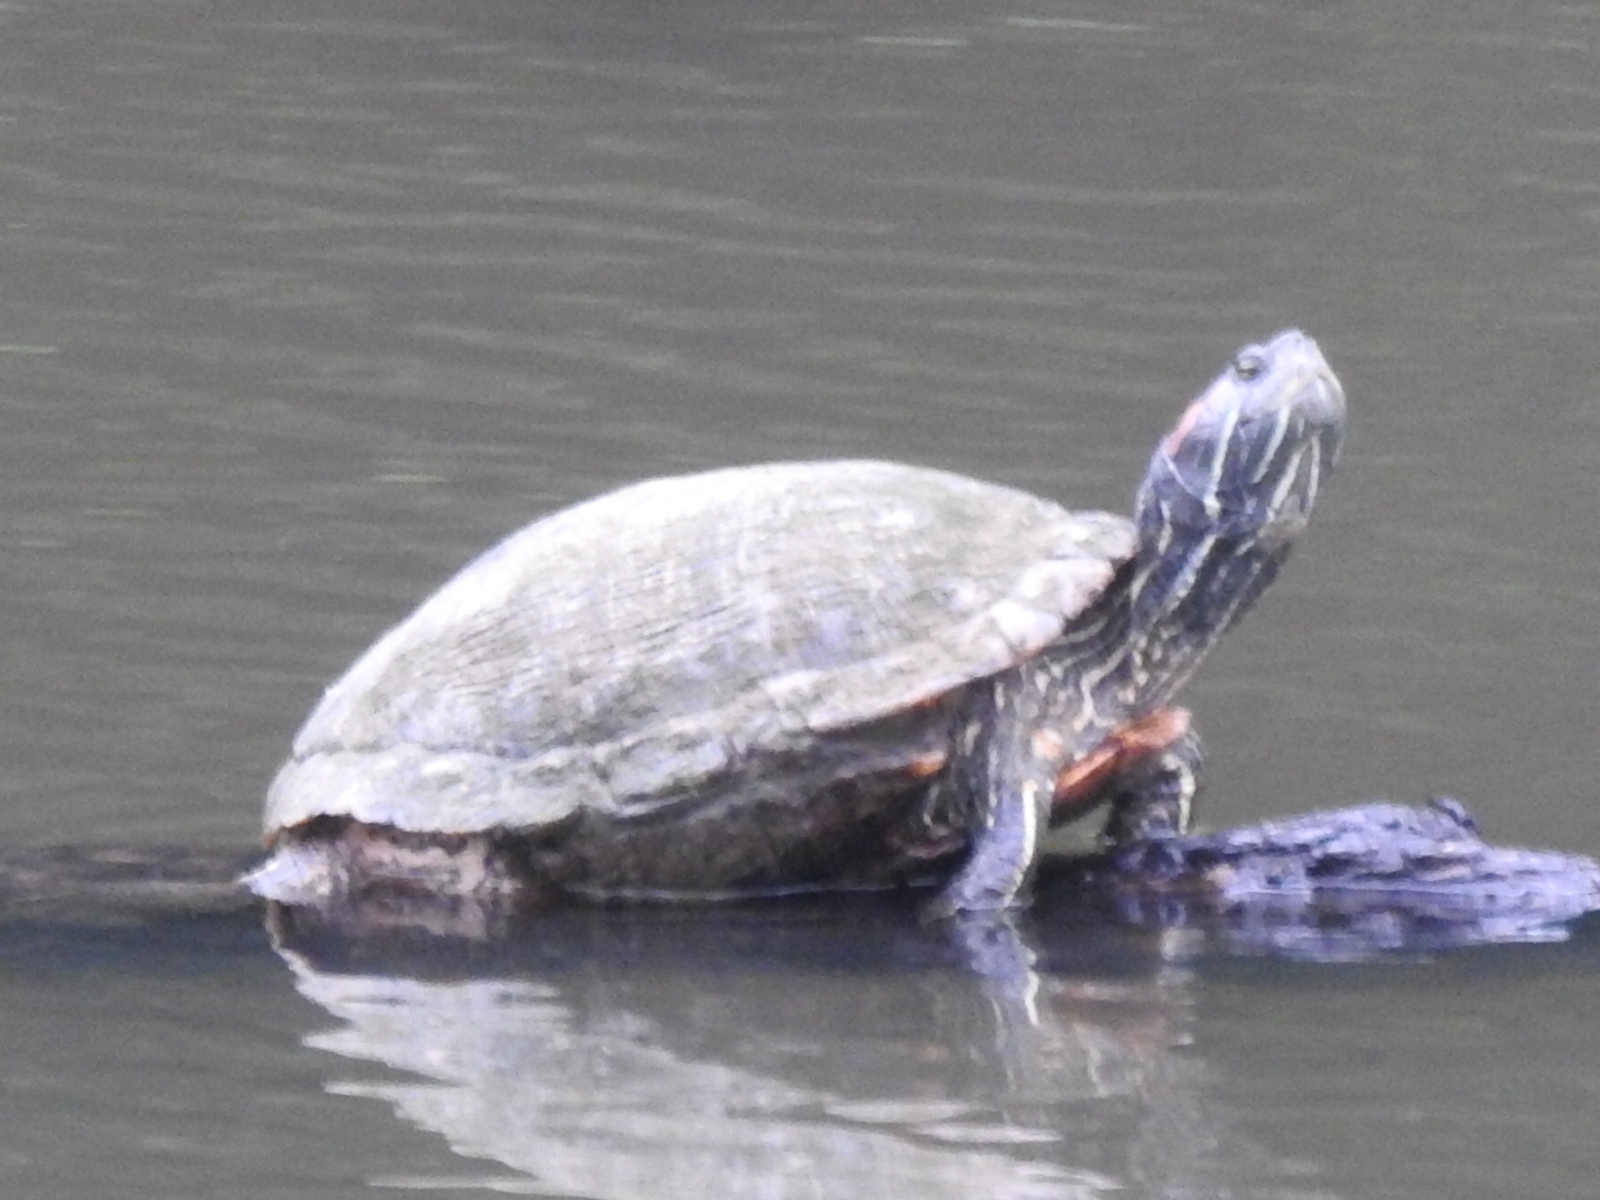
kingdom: Animalia
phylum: Chordata
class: Testudines
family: Emydidae
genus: Trachemys
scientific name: Trachemys scripta
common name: Slider
